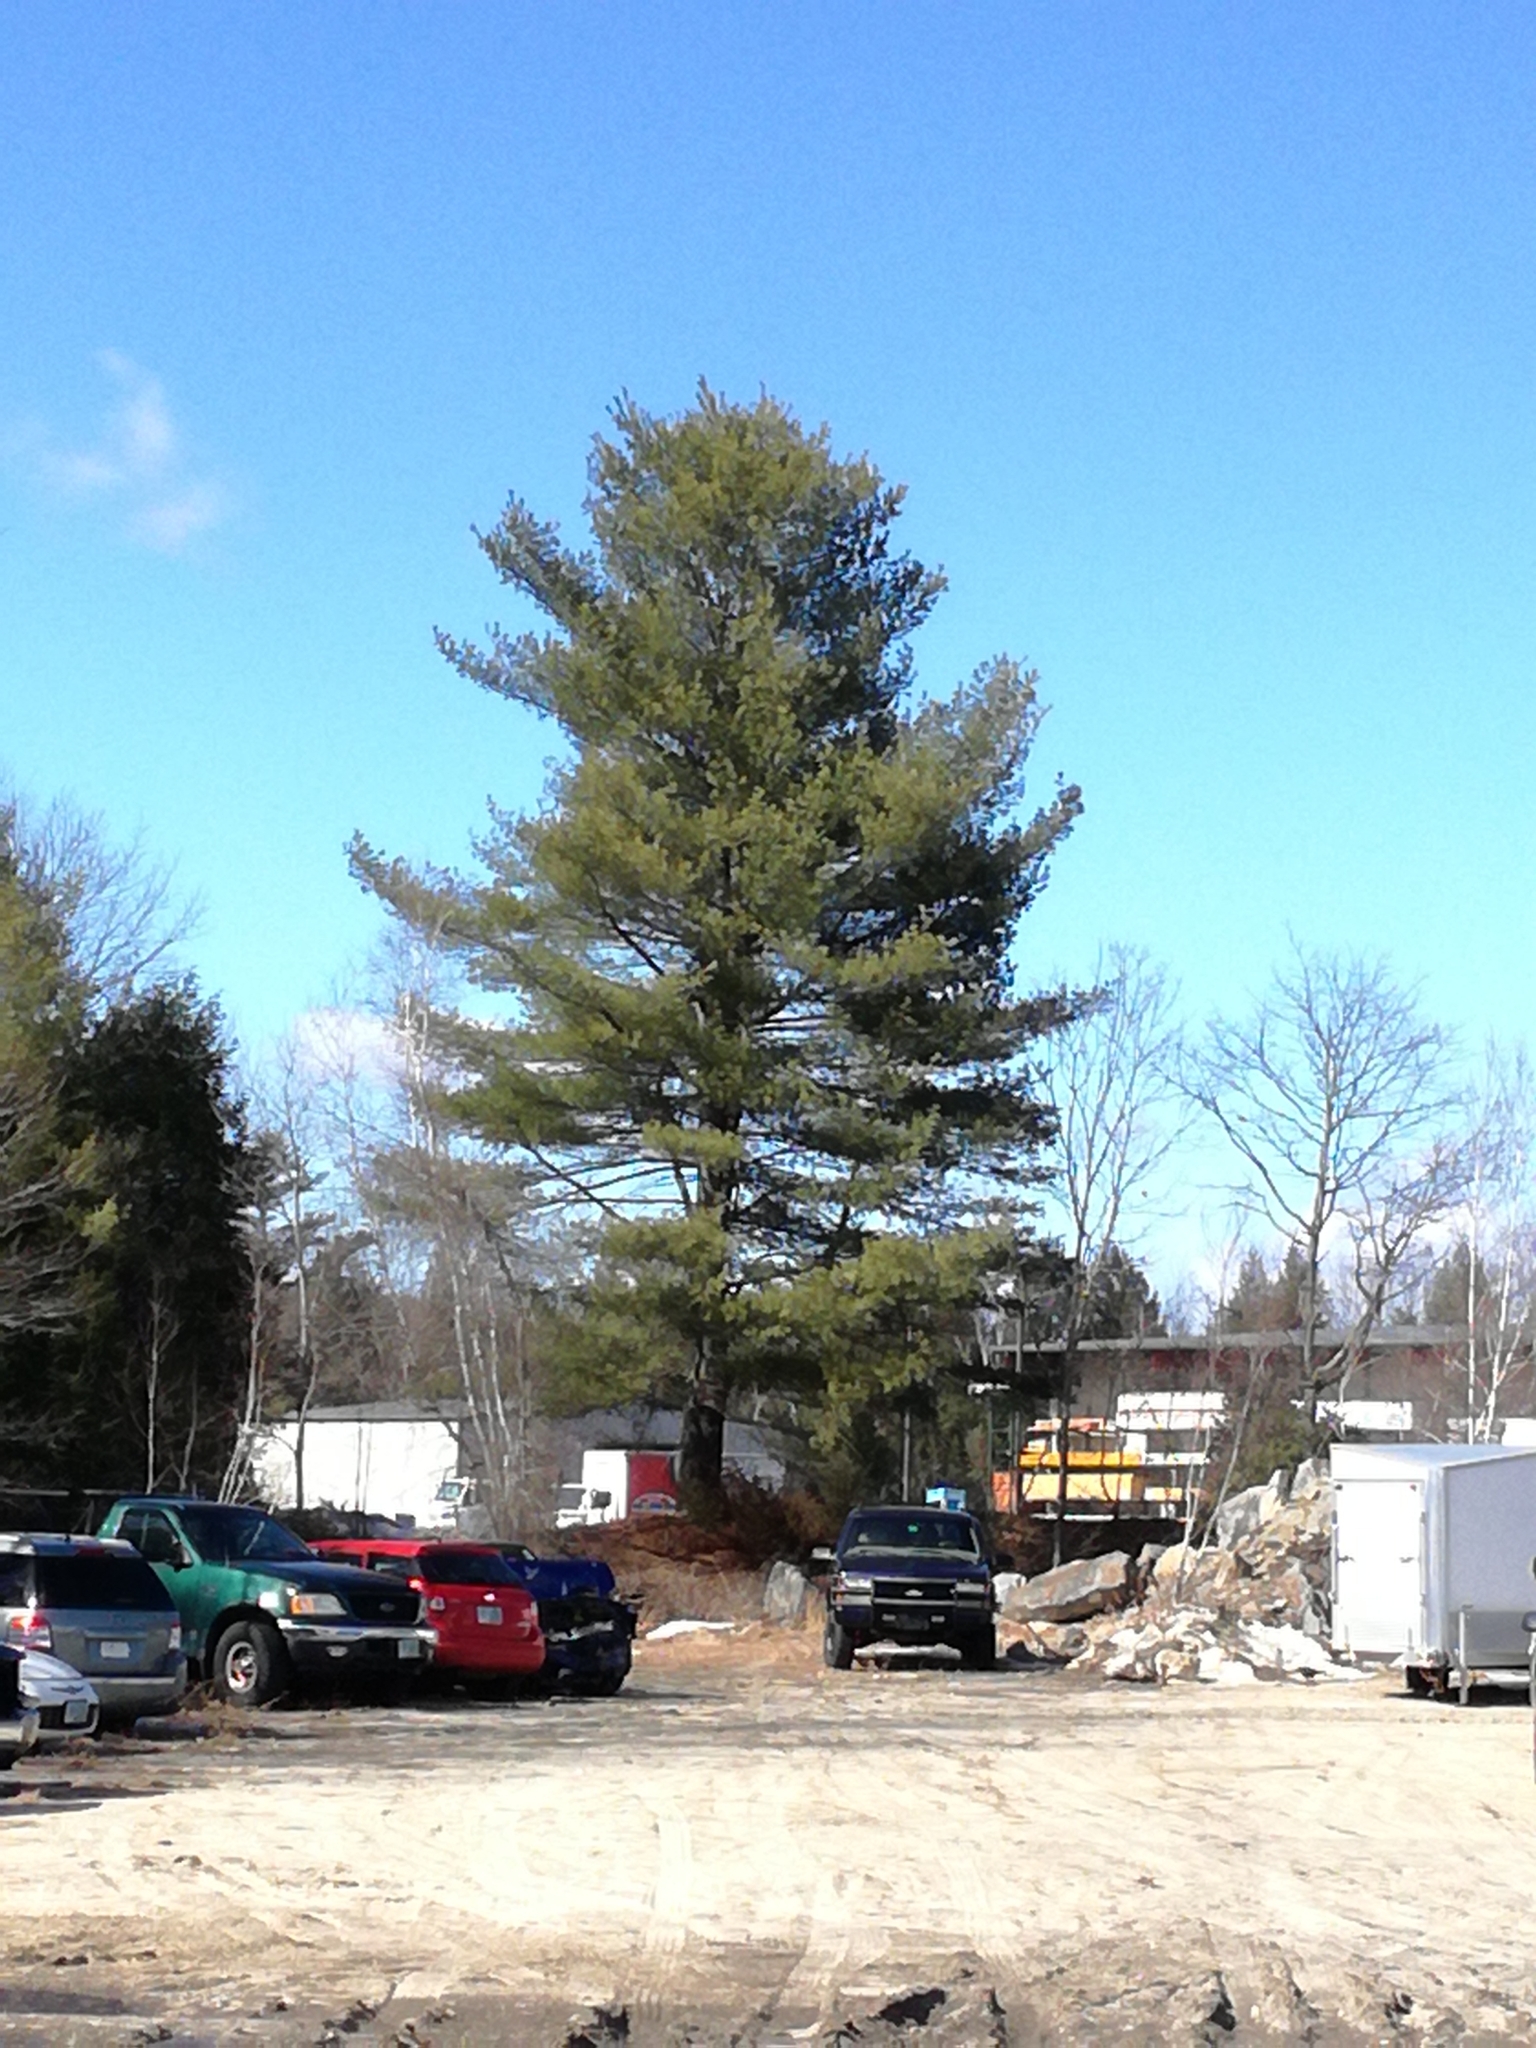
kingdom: Plantae
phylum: Tracheophyta
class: Pinopsida
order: Pinales
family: Pinaceae
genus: Pinus
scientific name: Pinus strobus
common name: Weymouth pine
